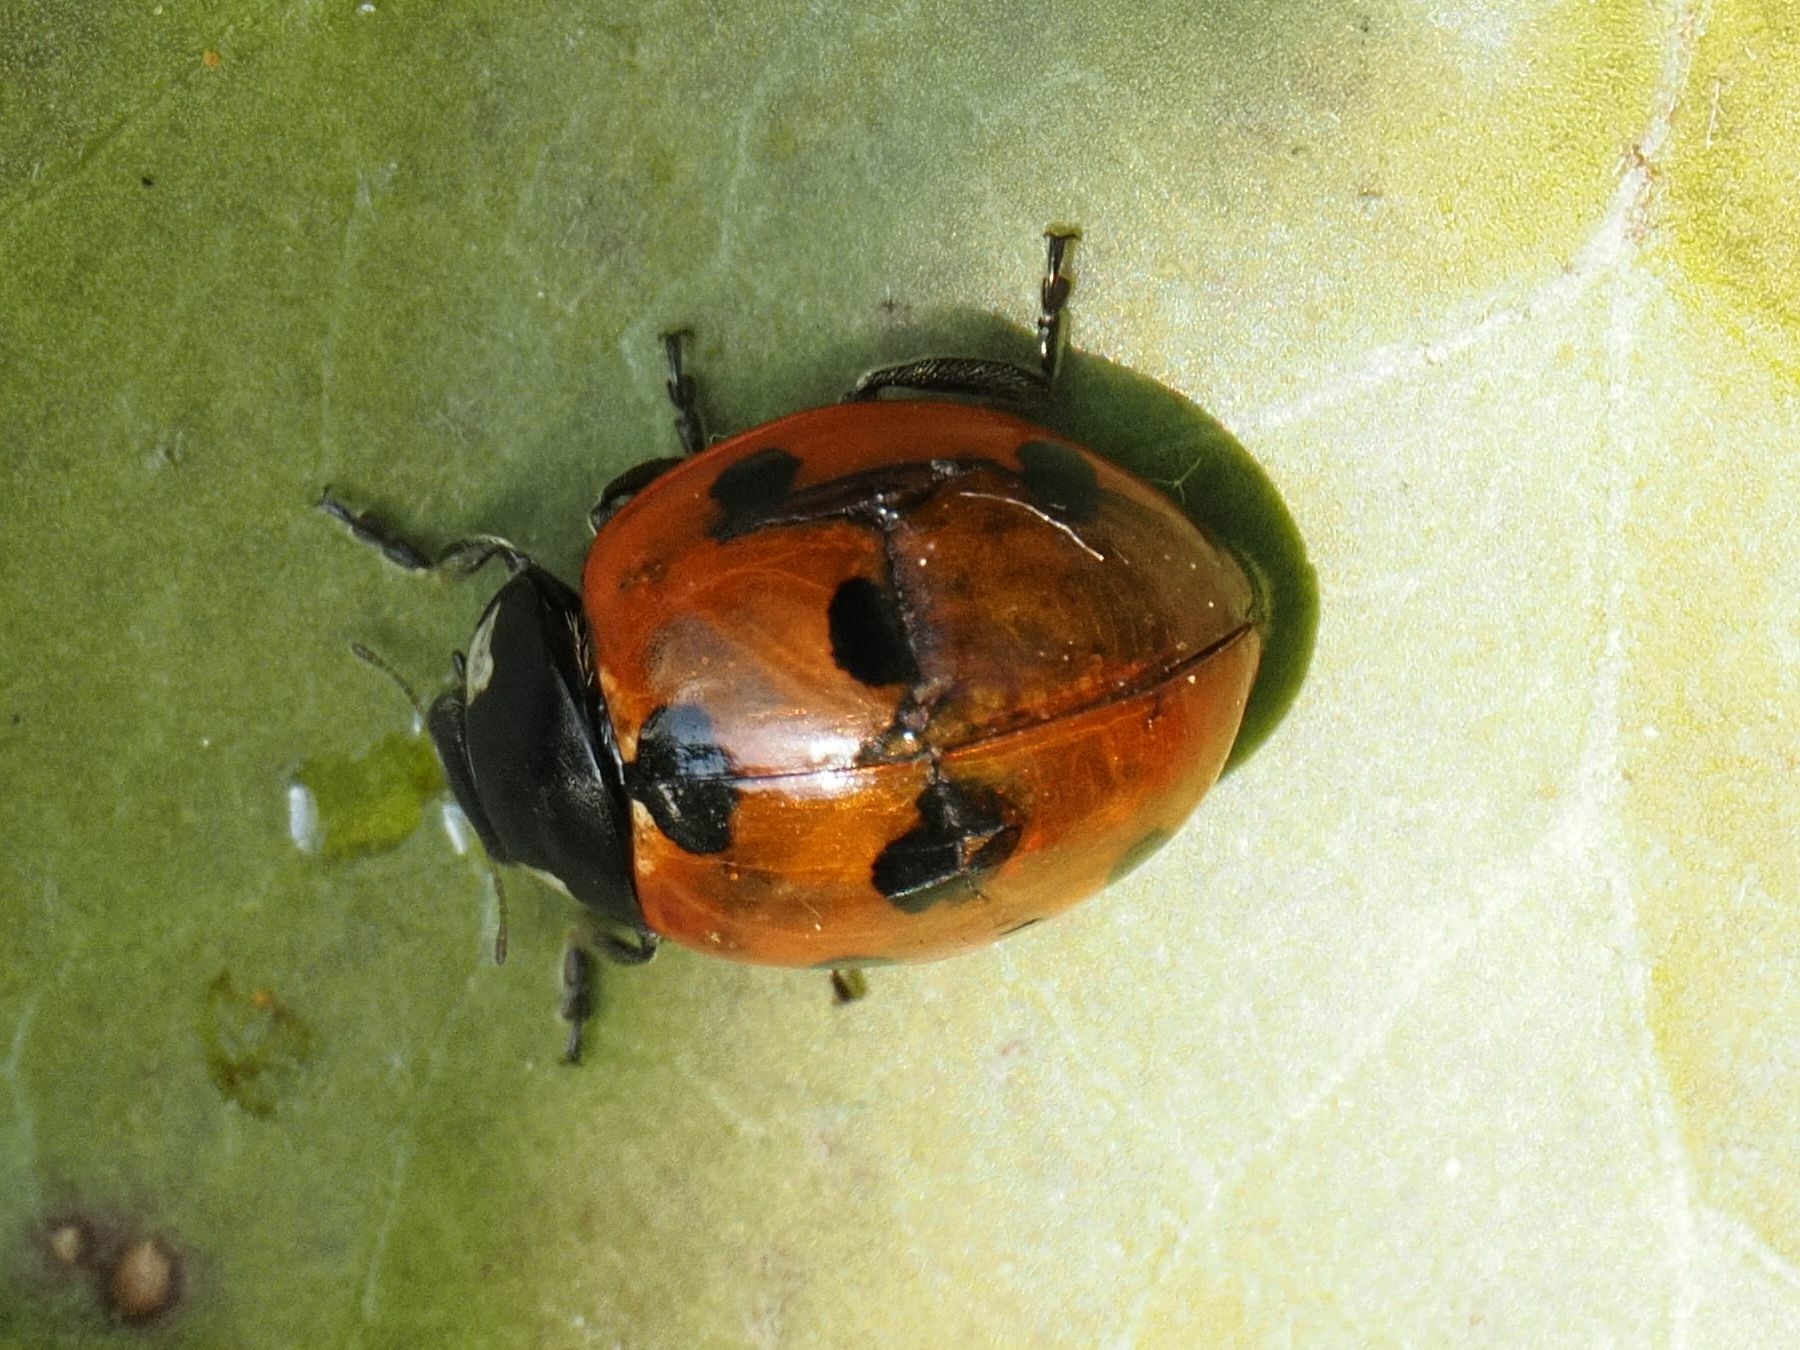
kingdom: Animalia
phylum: Arthropoda
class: Insecta
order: Coleoptera
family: Coccinellidae
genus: Coccinella
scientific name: Coccinella septempunctata
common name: Sevenspotted lady beetle
